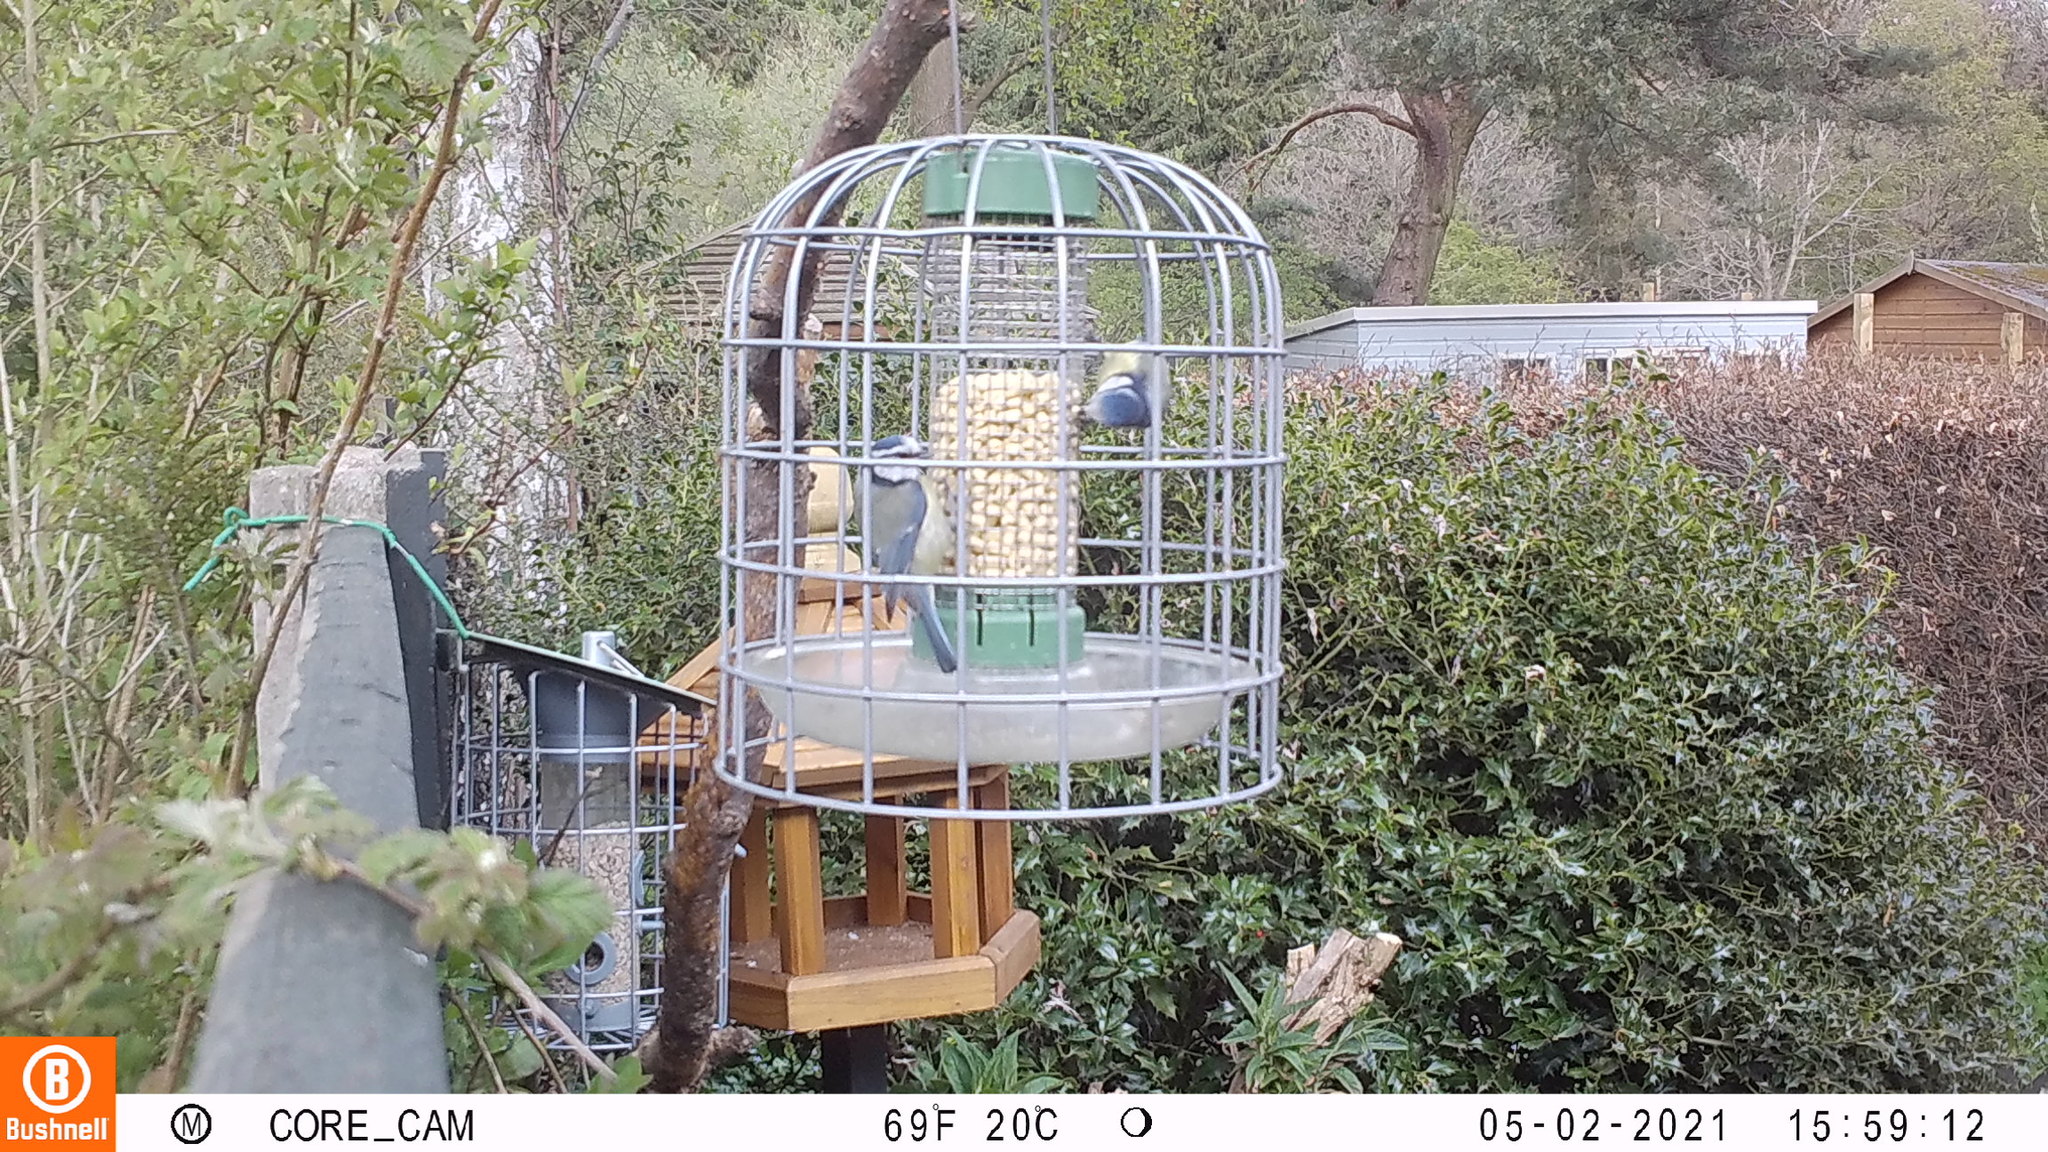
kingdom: Animalia
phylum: Chordata
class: Aves
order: Passeriformes
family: Paridae
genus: Cyanistes
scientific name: Cyanistes caeruleus
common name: Eurasian blue tit
